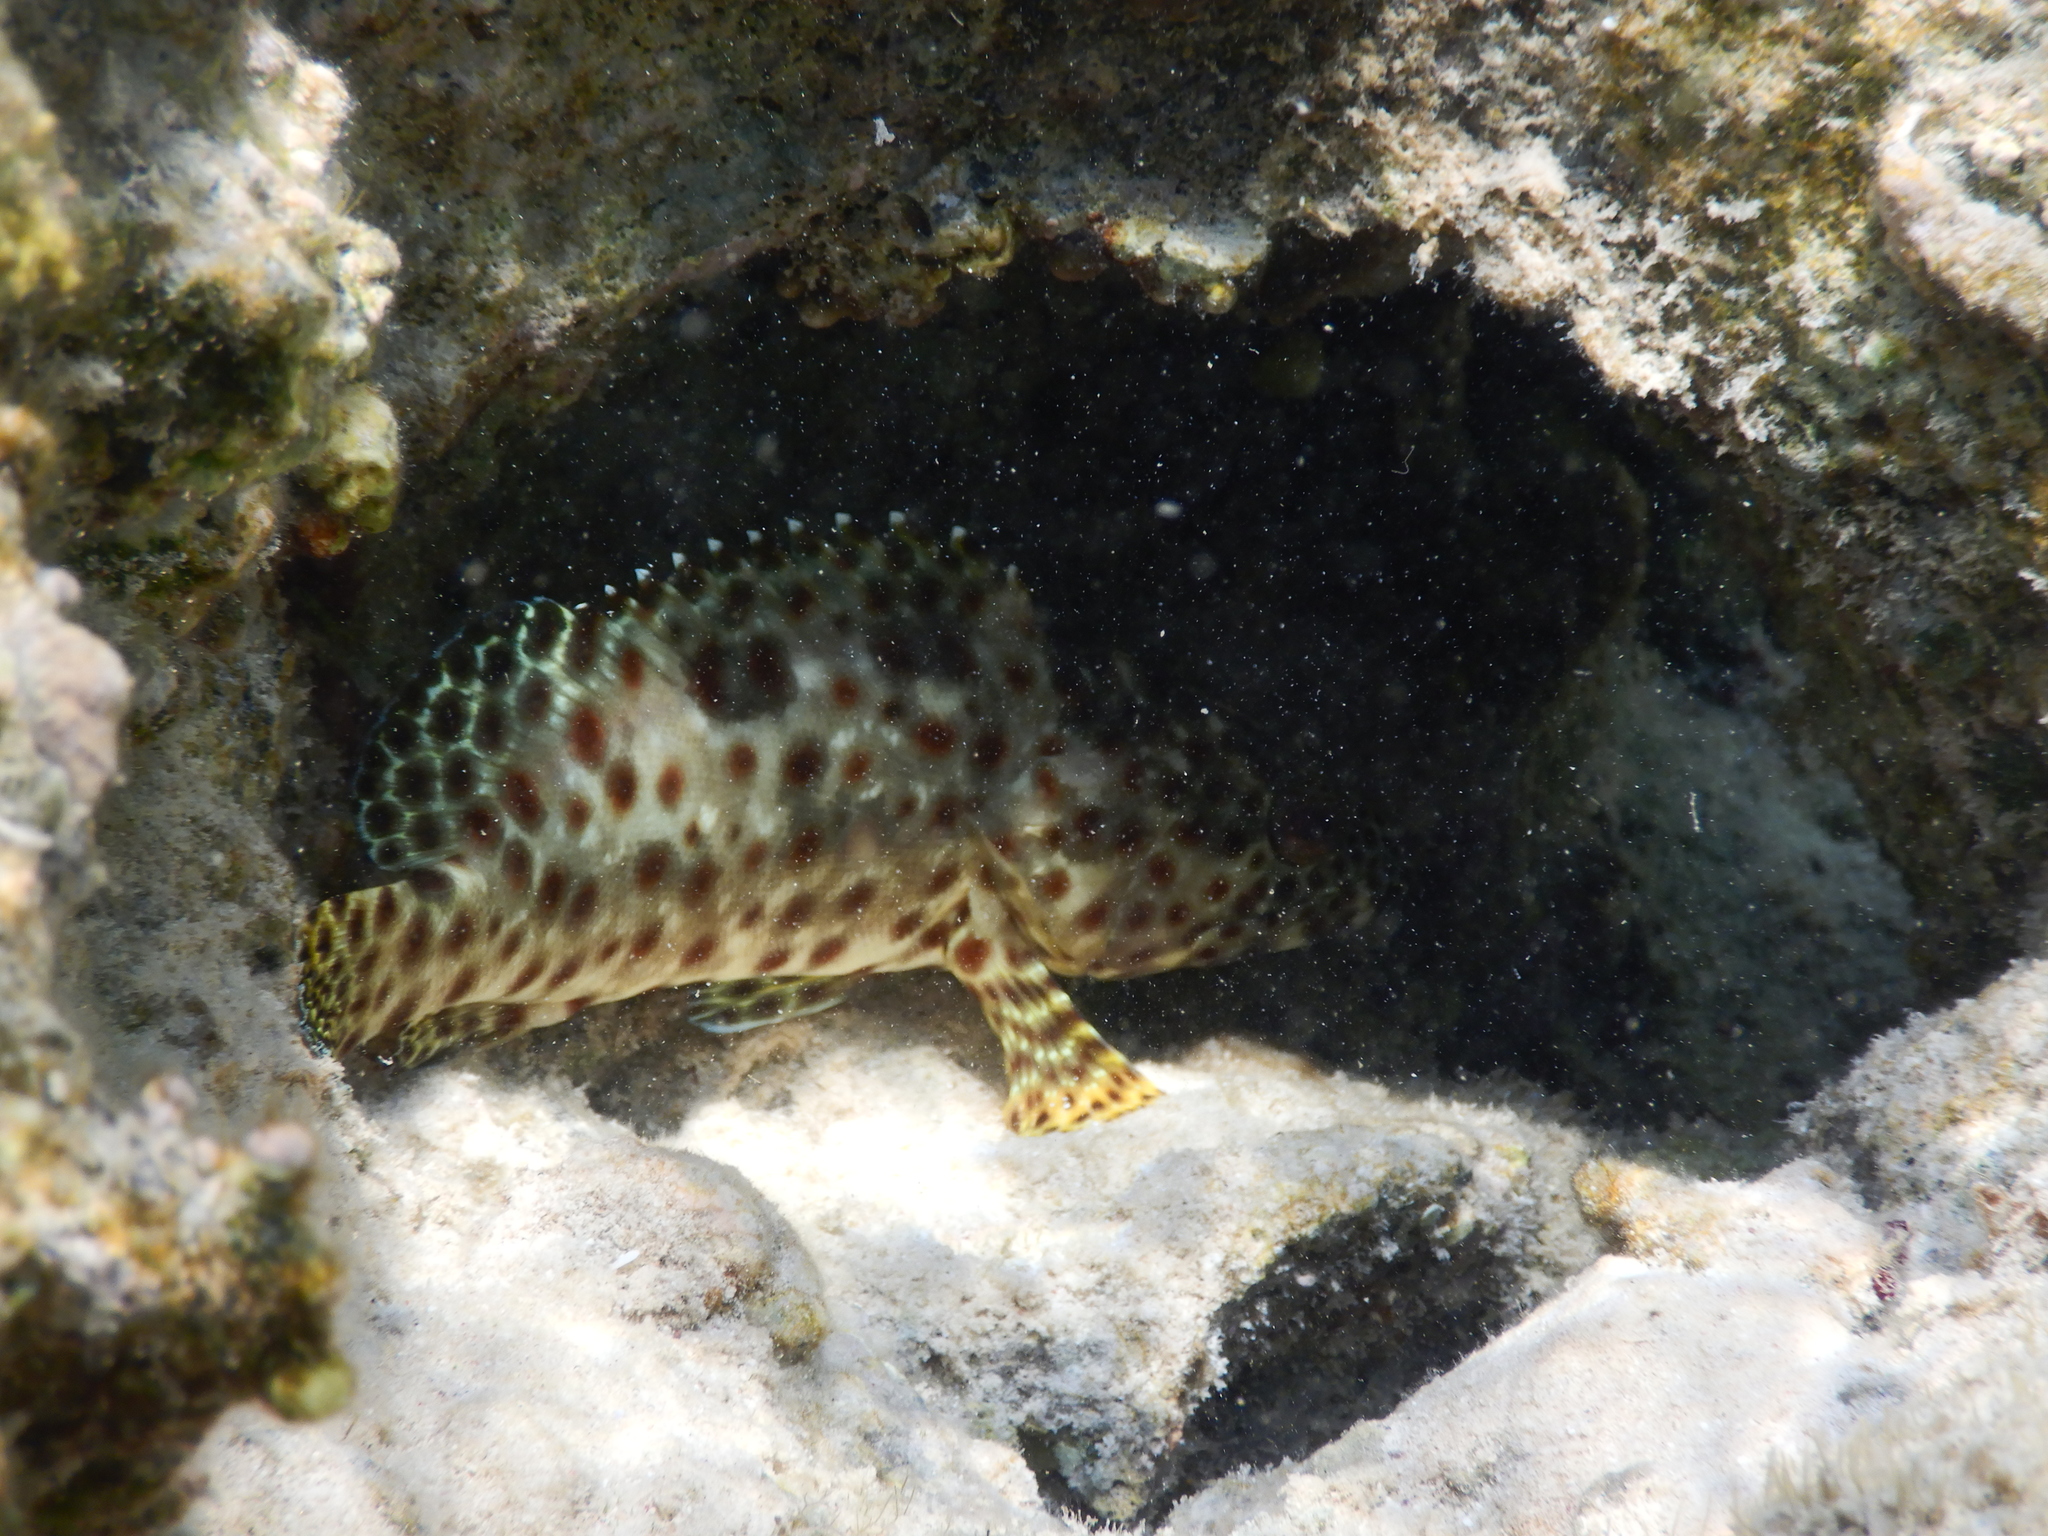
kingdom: Animalia
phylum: Chordata
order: Perciformes
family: Serranidae
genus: Epinephelus
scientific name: Epinephelus tauvina
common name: Greasy grouper
